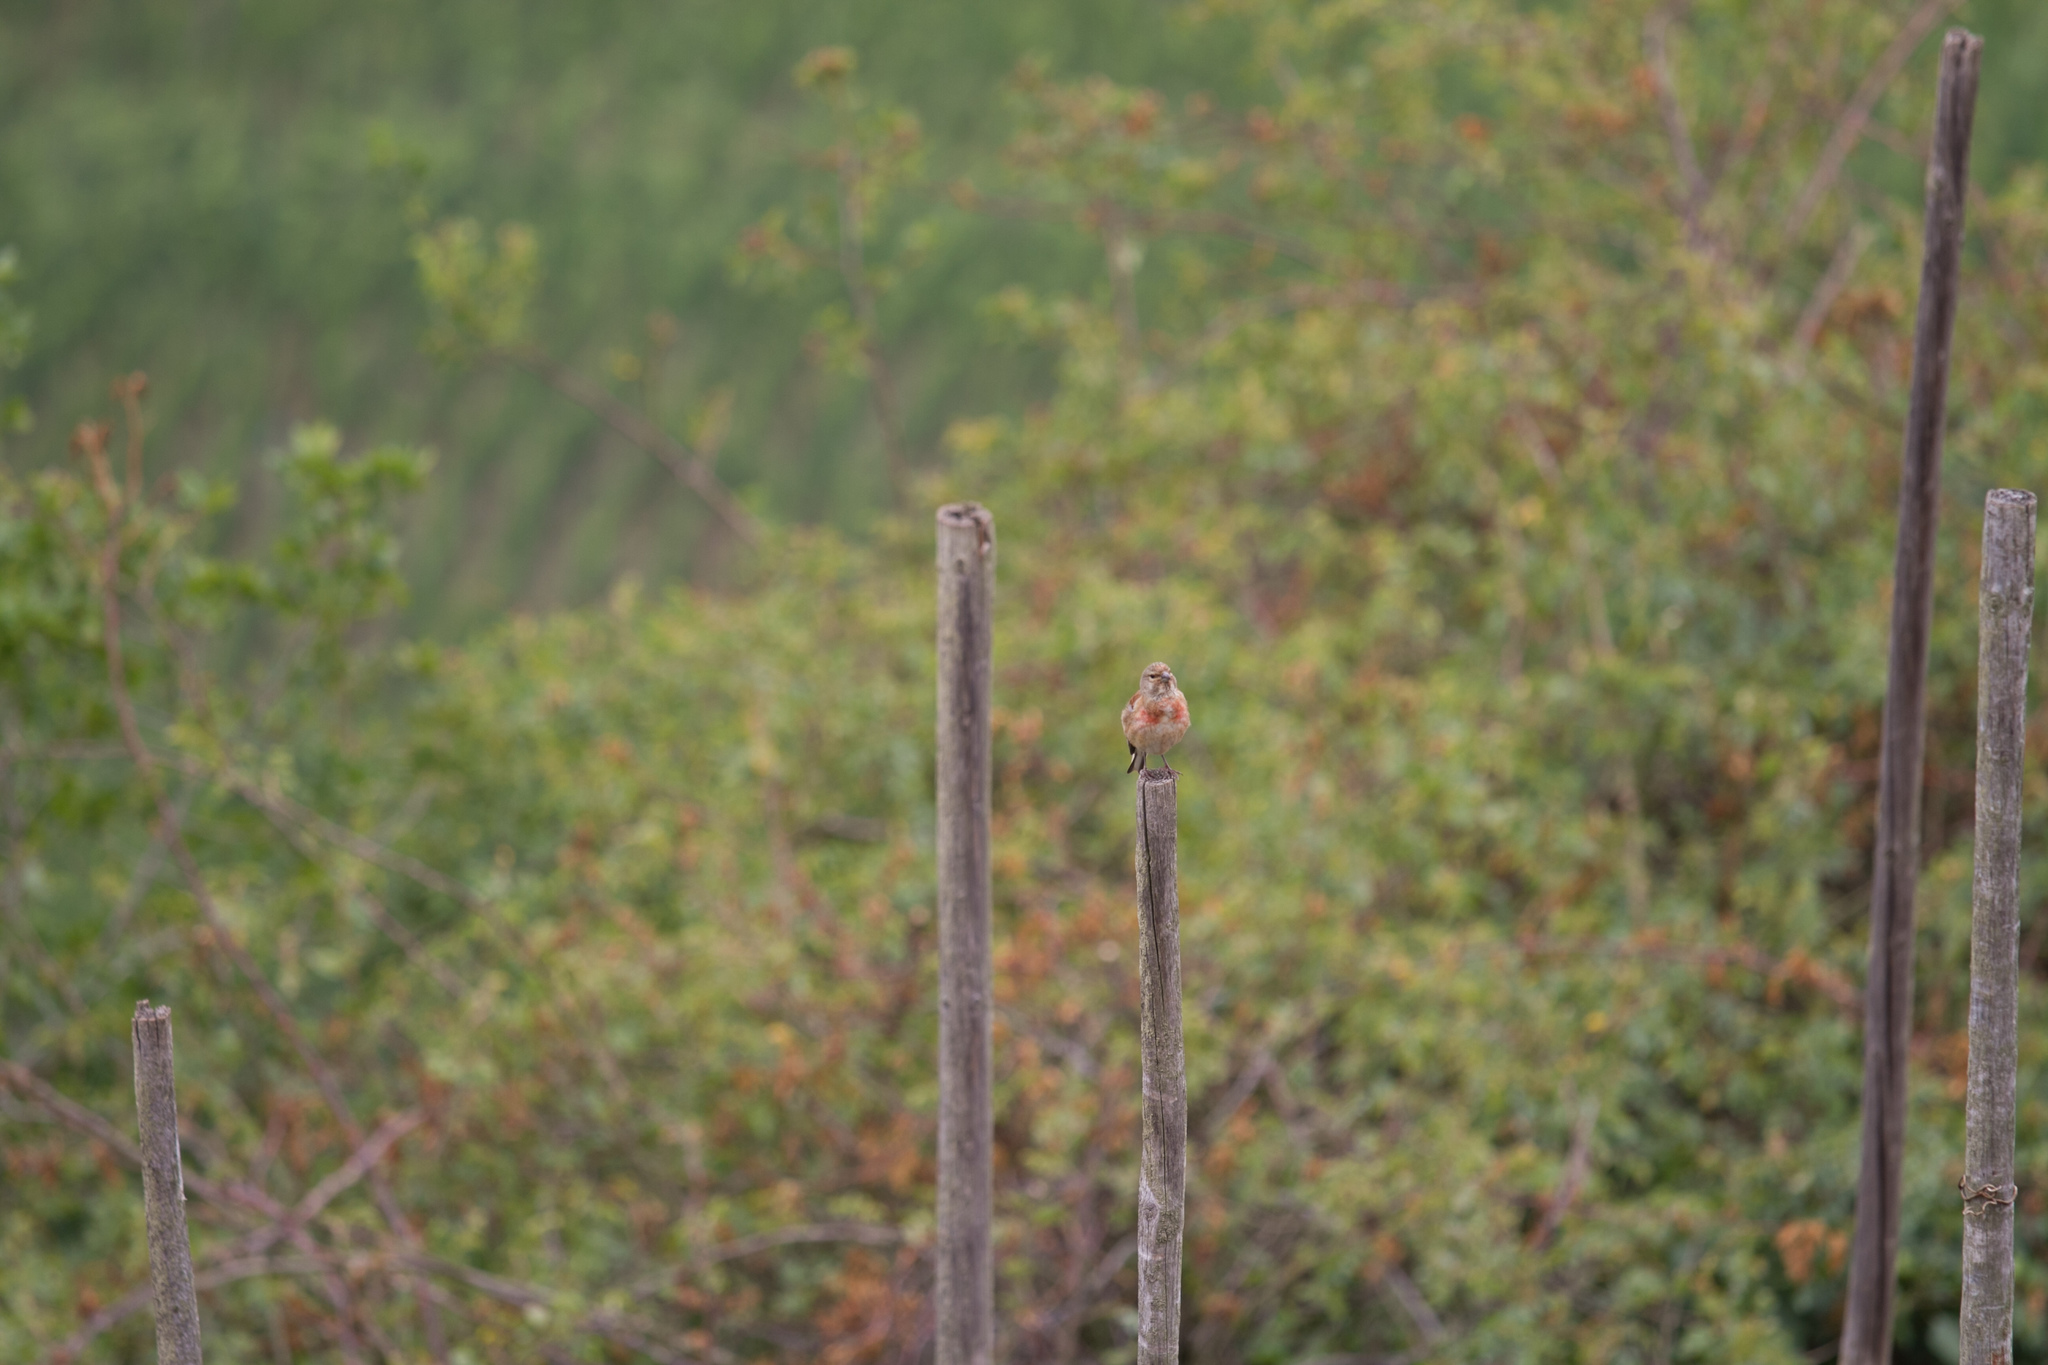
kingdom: Animalia
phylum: Chordata
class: Aves
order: Passeriformes
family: Fringillidae
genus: Linaria
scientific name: Linaria cannabina
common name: Common linnet
